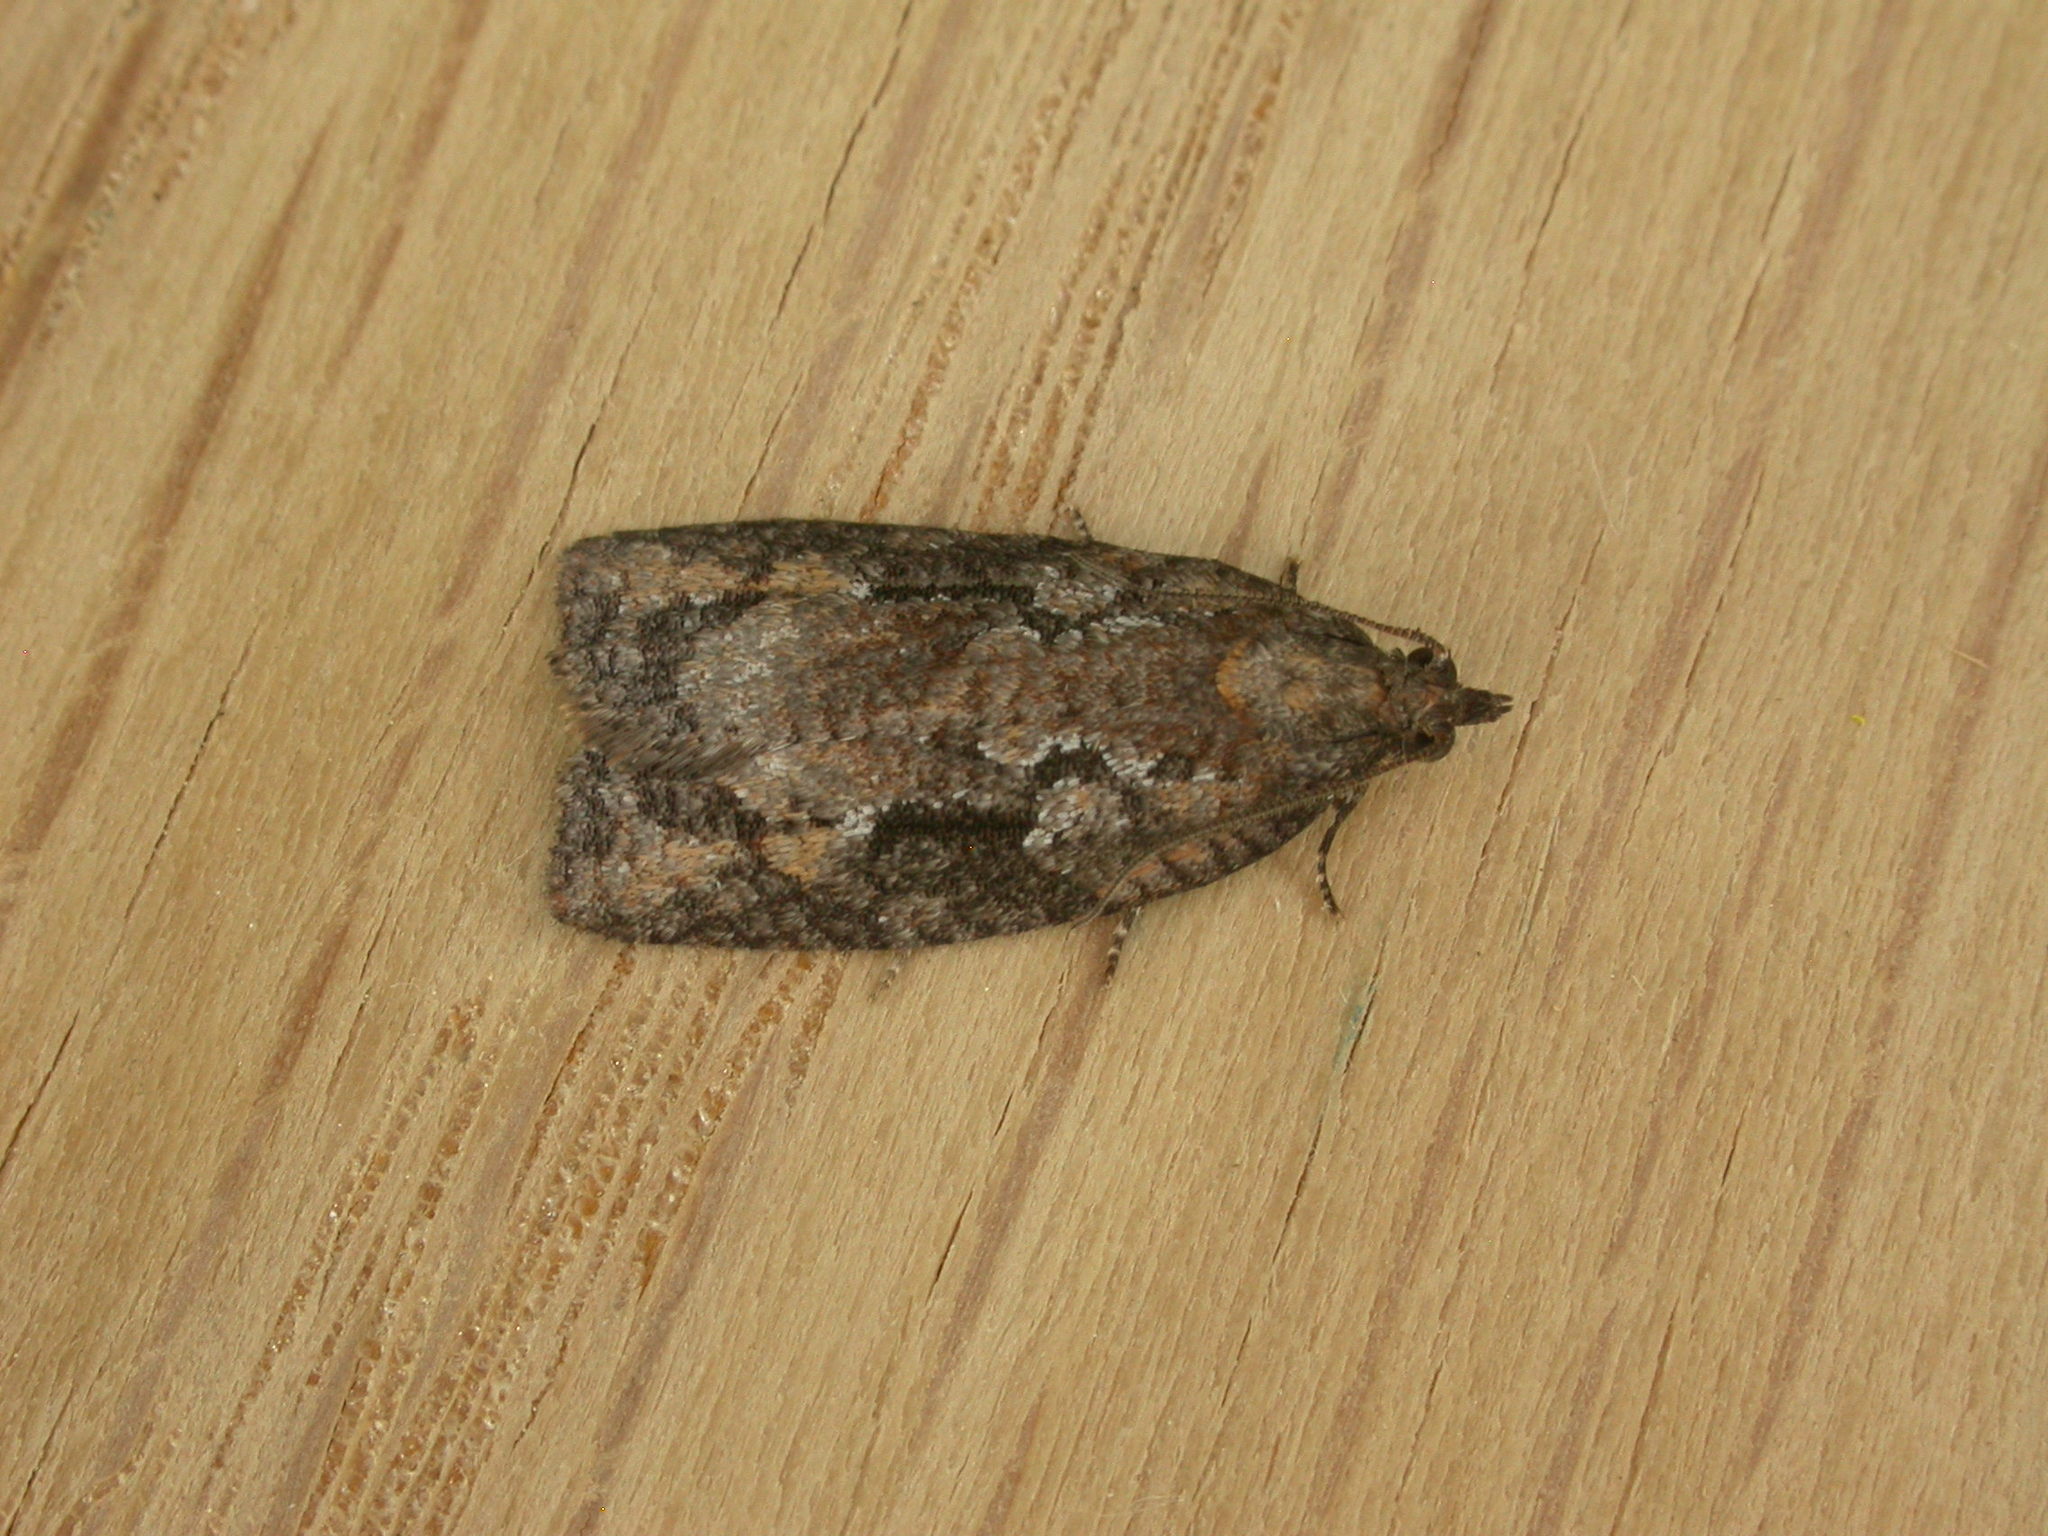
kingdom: Animalia
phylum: Arthropoda
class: Insecta
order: Lepidoptera
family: Tortricidae
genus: Acropolitis
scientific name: Acropolitis excelsa
